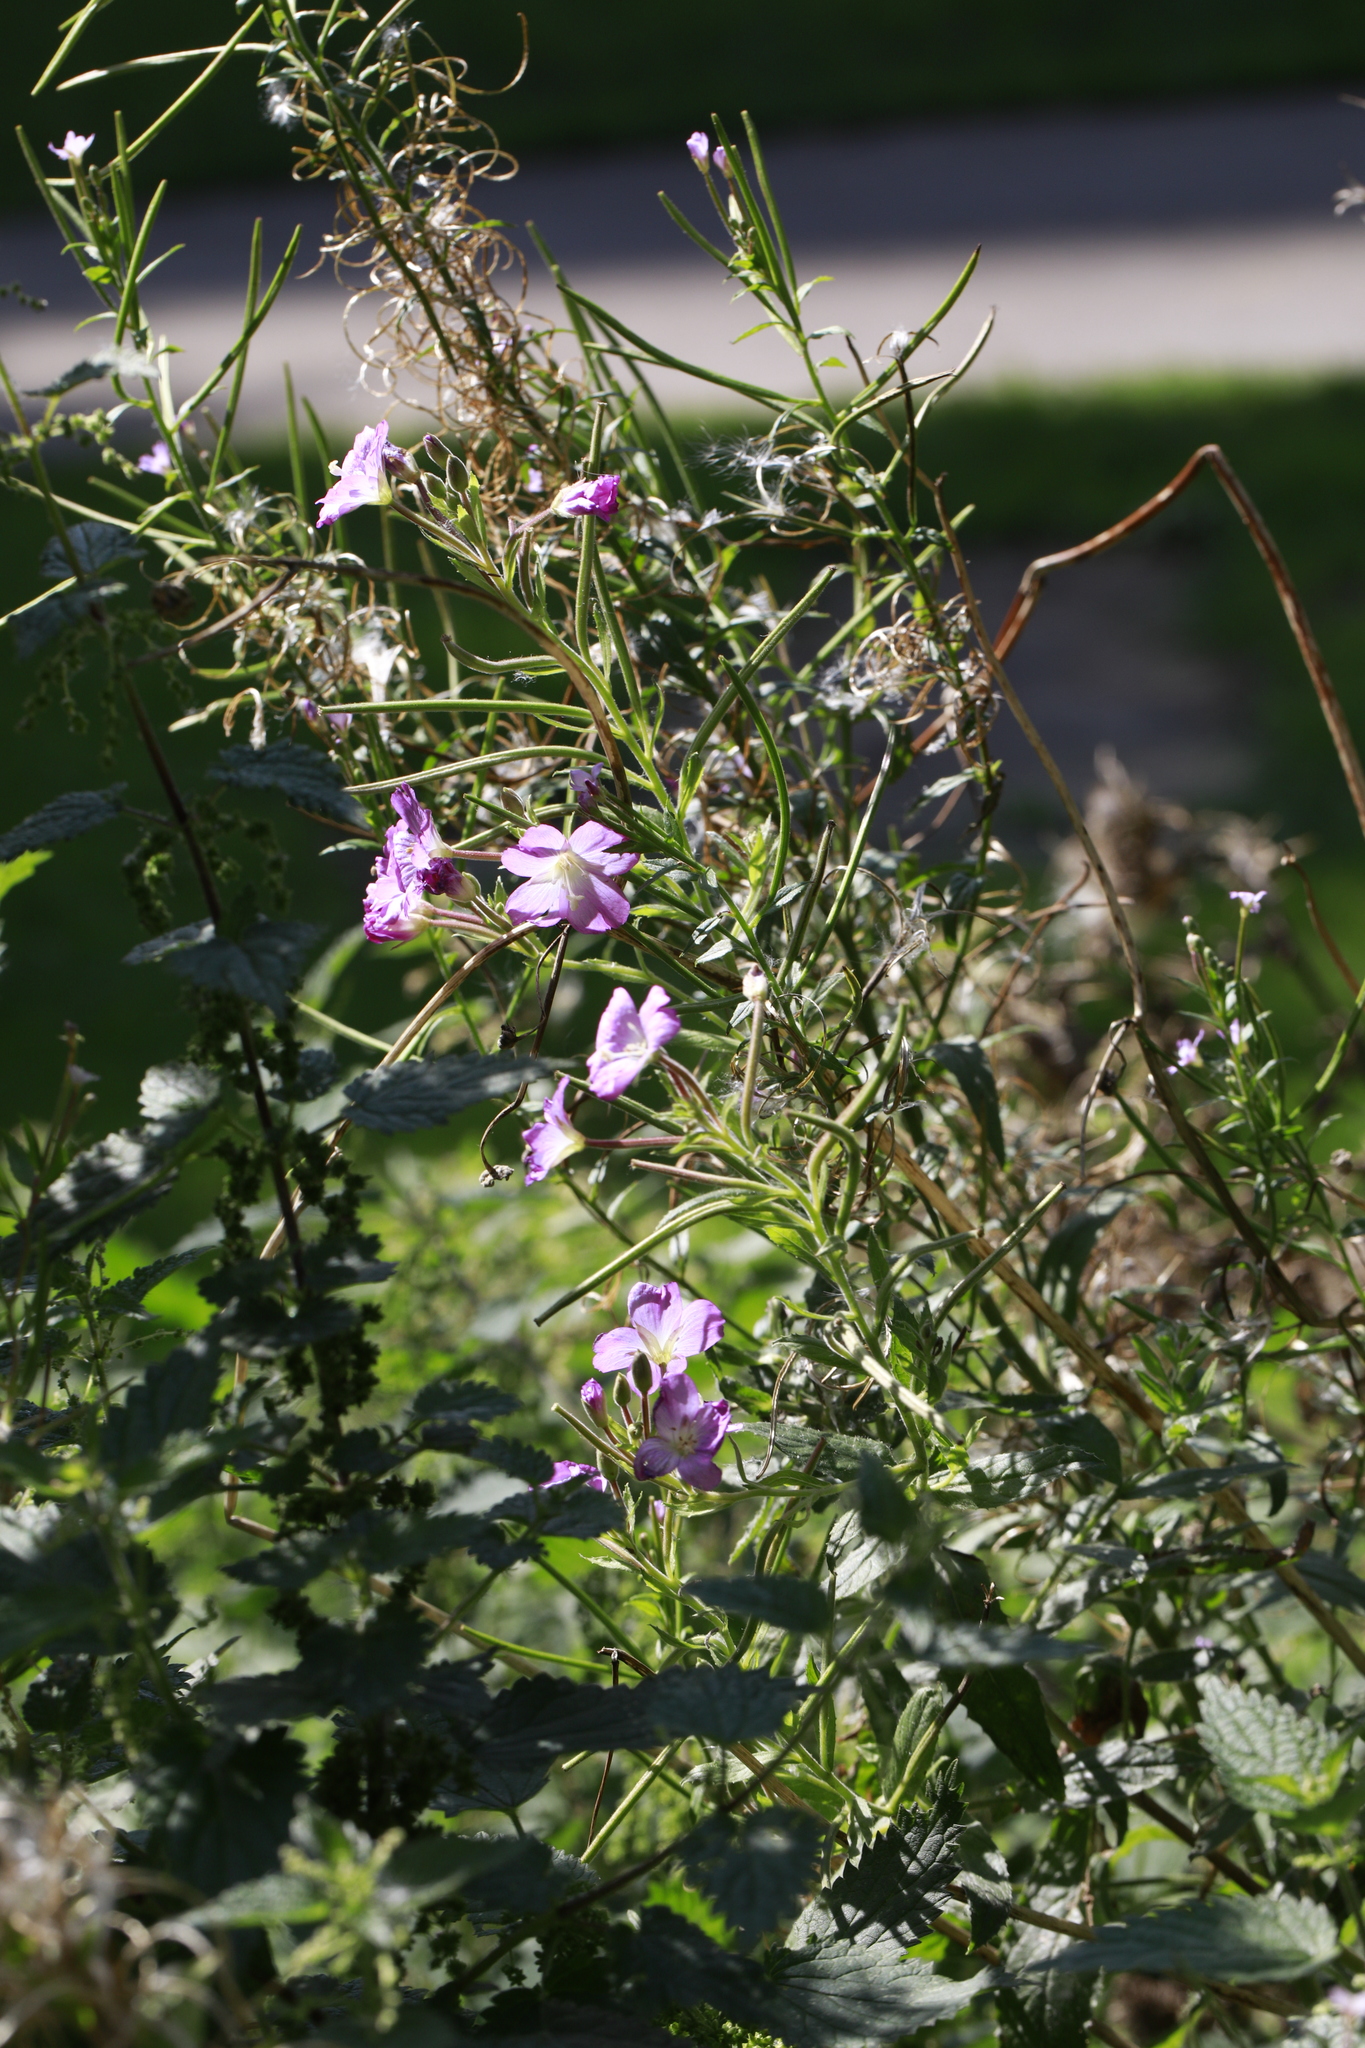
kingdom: Plantae
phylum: Tracheophyta
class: Magnoliopsida
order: Myrtales
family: Onagraceae
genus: Epilobium
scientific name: Epilobium hirsutum
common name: Great willowherb
